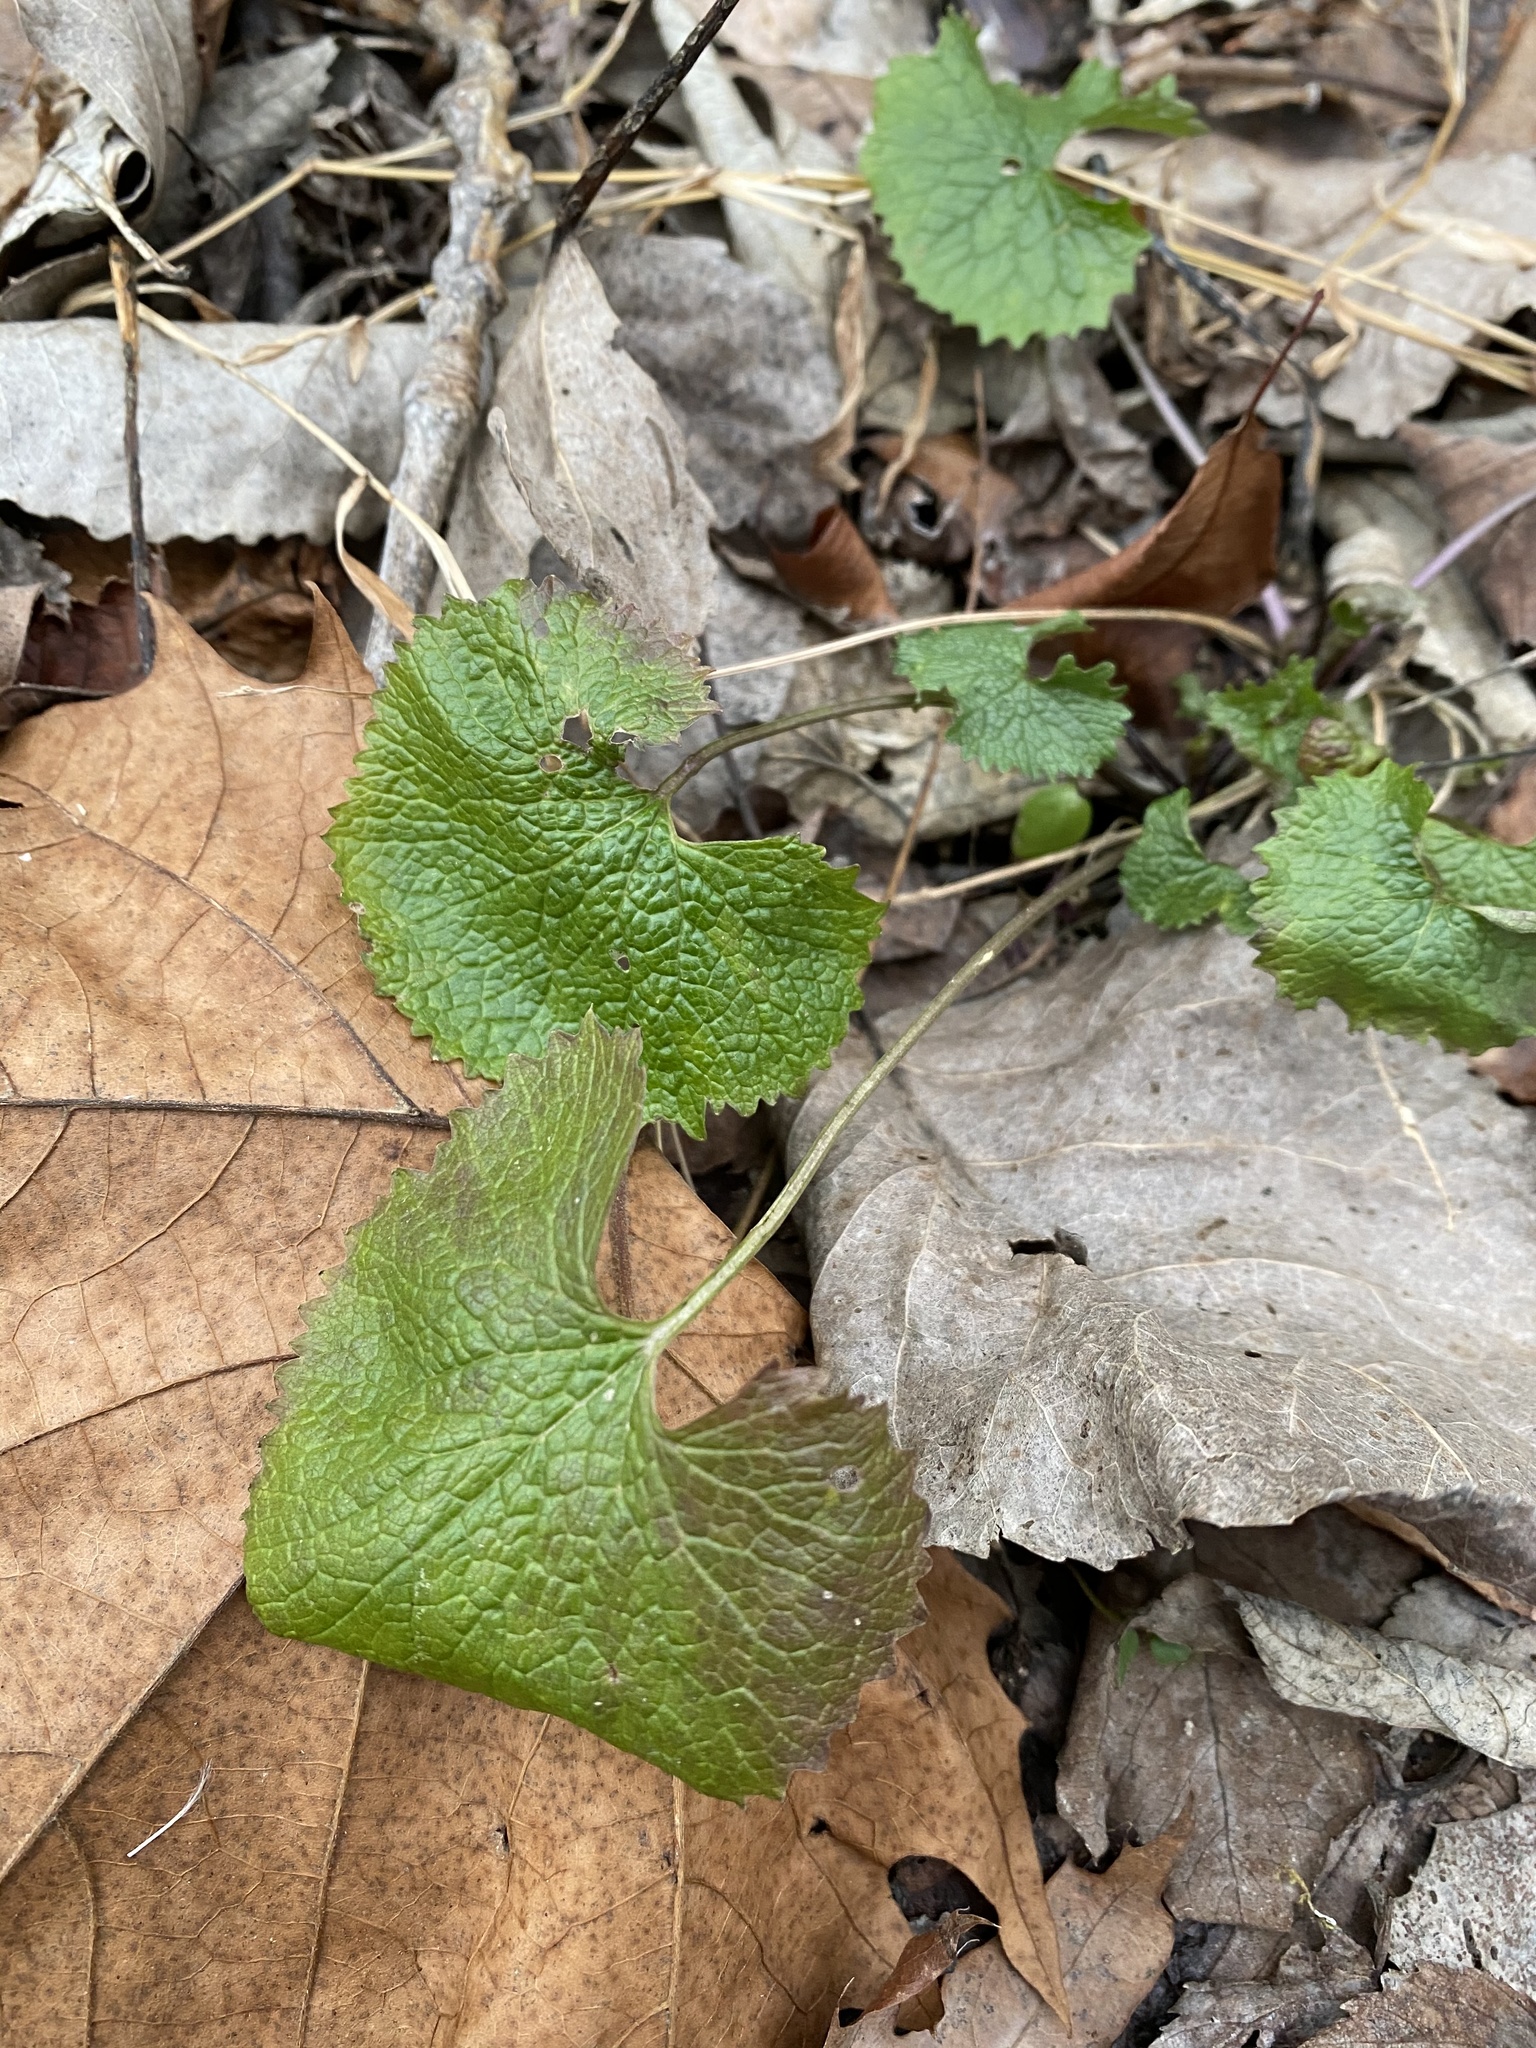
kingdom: Plantae
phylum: Tracheophyta
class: Magnoliopsida
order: Brassicales
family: Brassicaceae
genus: Alliaria
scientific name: Alliaria petiolata
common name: Garlic mustard
